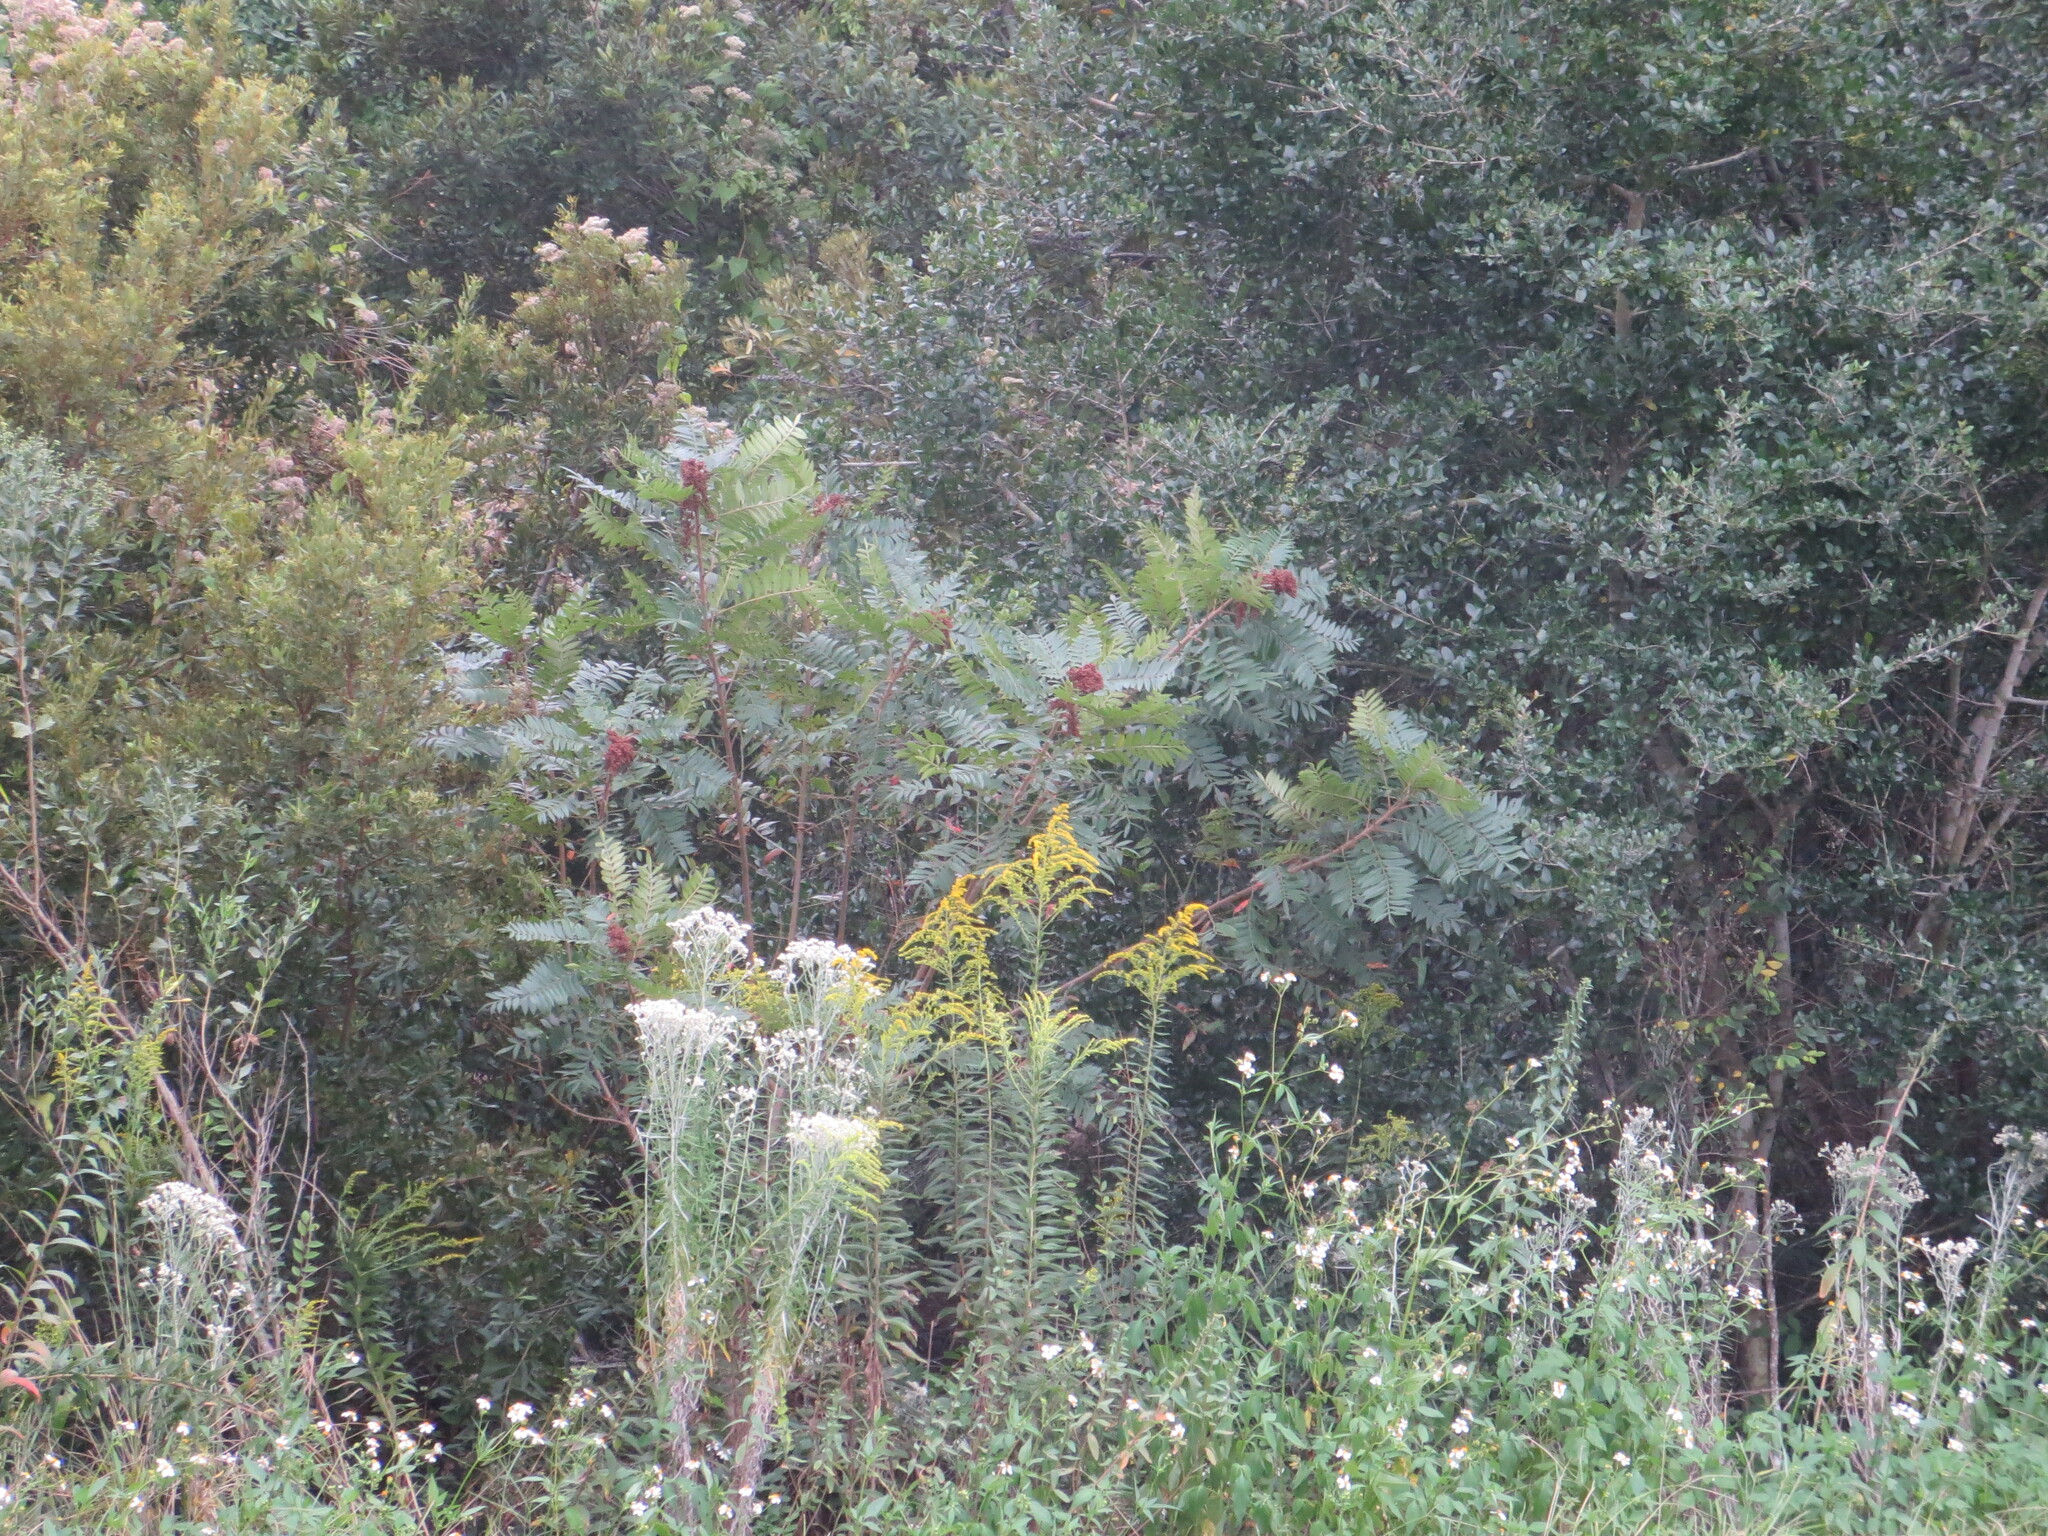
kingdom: Plantae
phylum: Tracheophyta
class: Magnoliopsida
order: Asterales
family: Asteraceae
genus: Bidens
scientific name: Bidens alba
